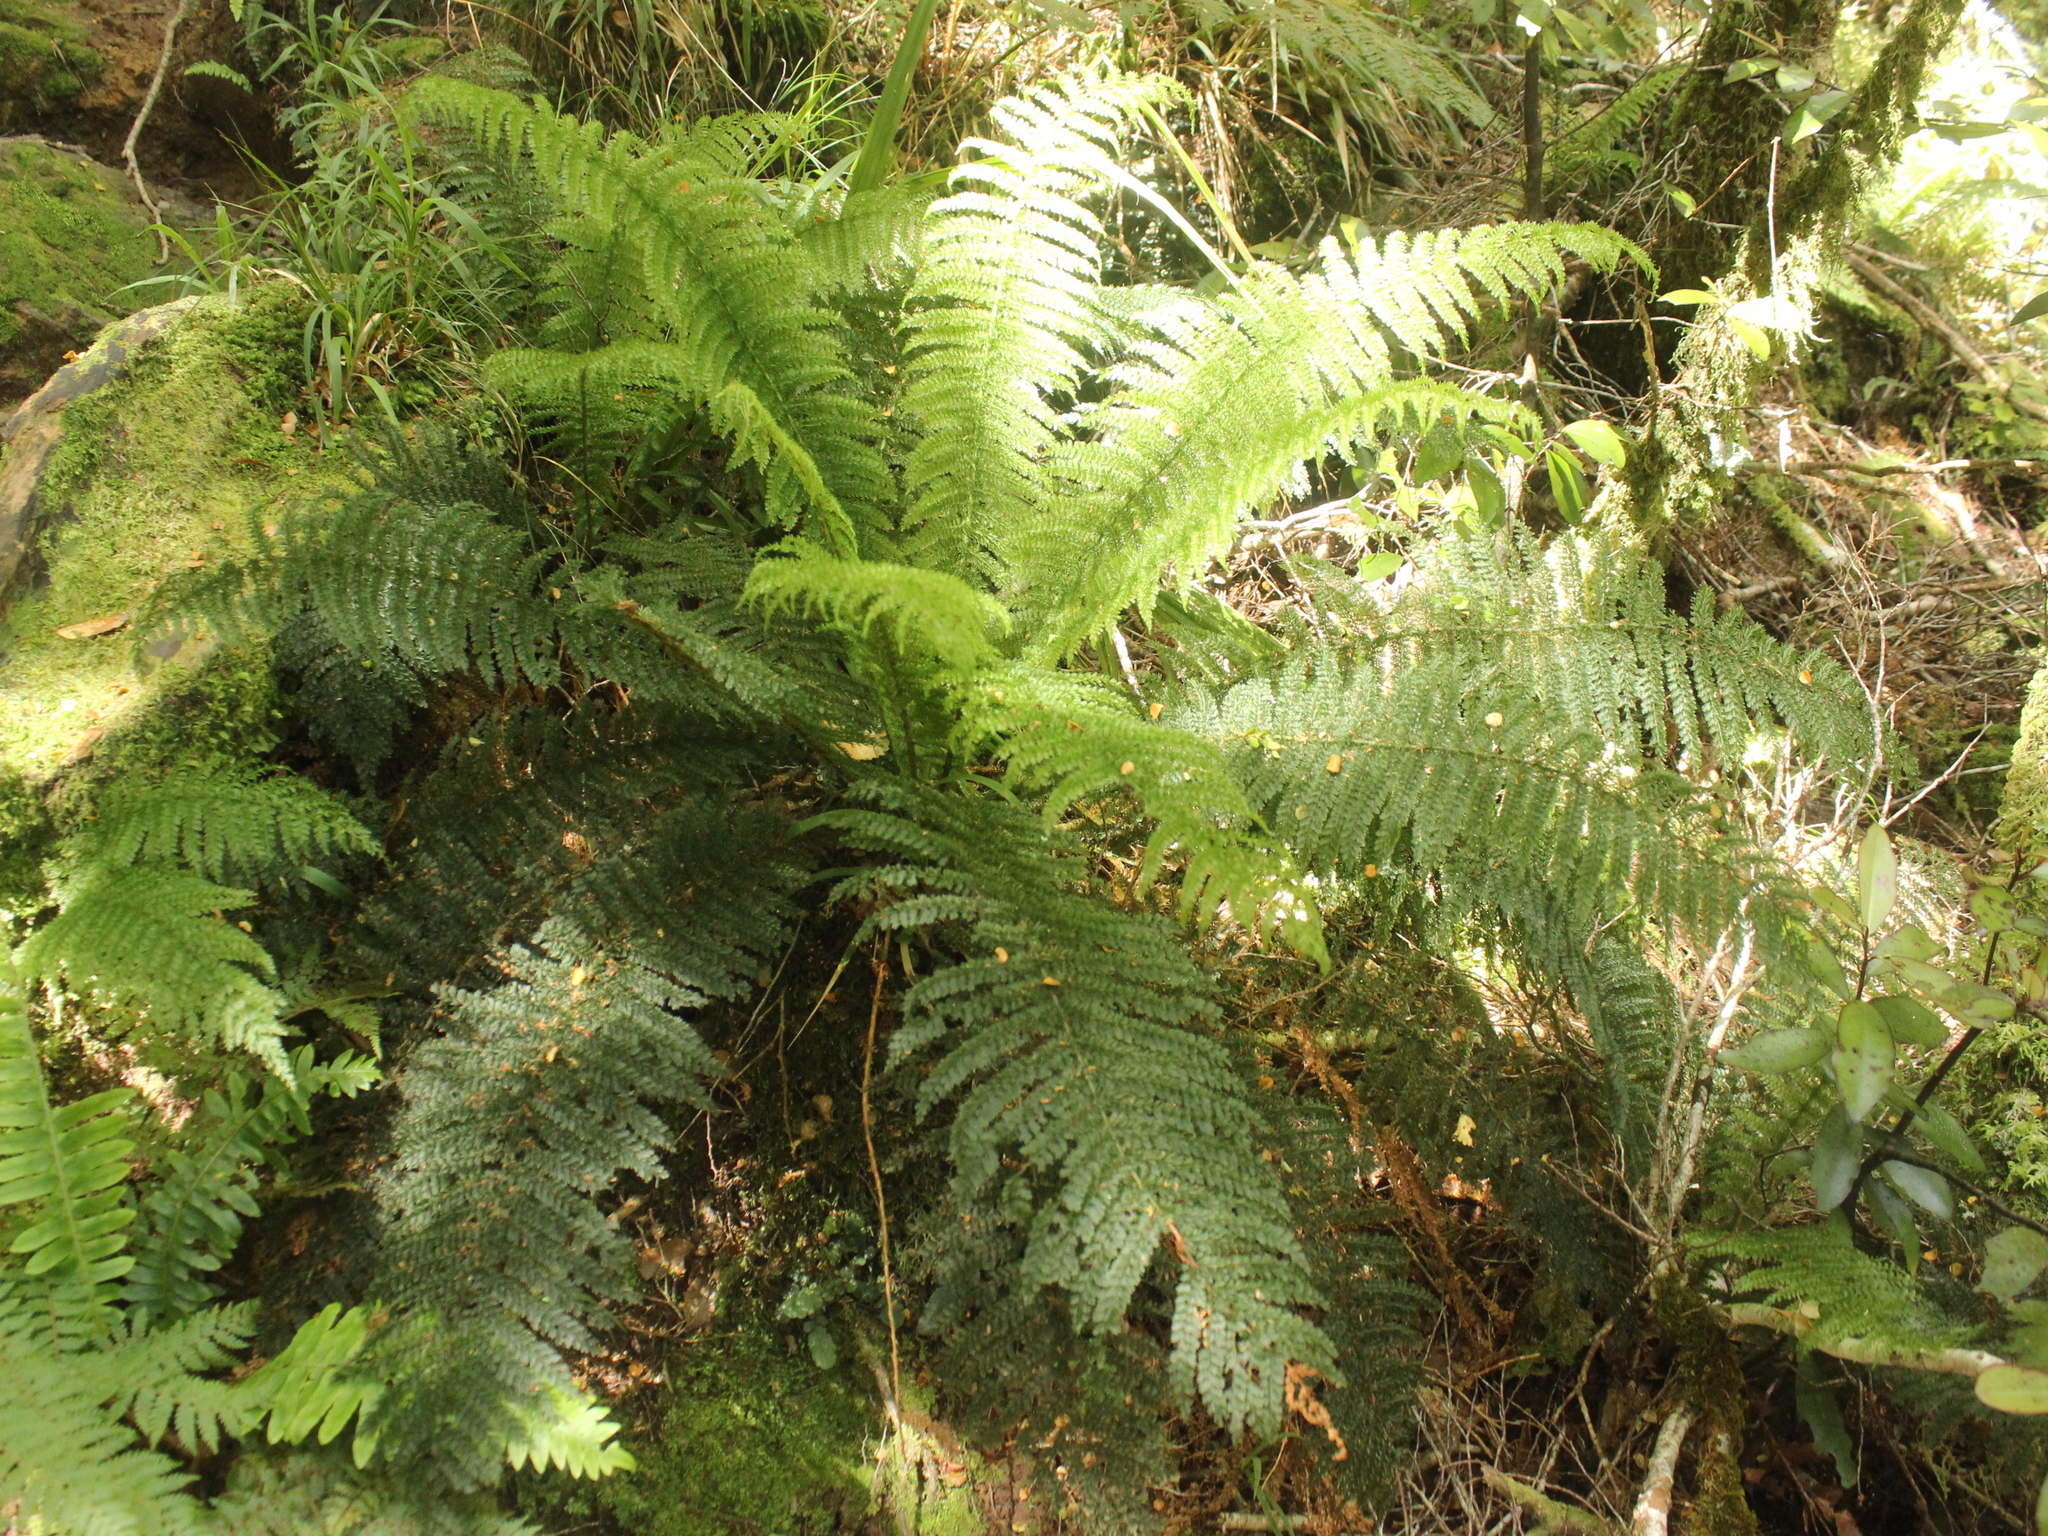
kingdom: Plantae
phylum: Tracheophyta
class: Polypodiopsida
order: Osmundales
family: Osmundaceae
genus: Leptopteris
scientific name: Leptopteris superba
